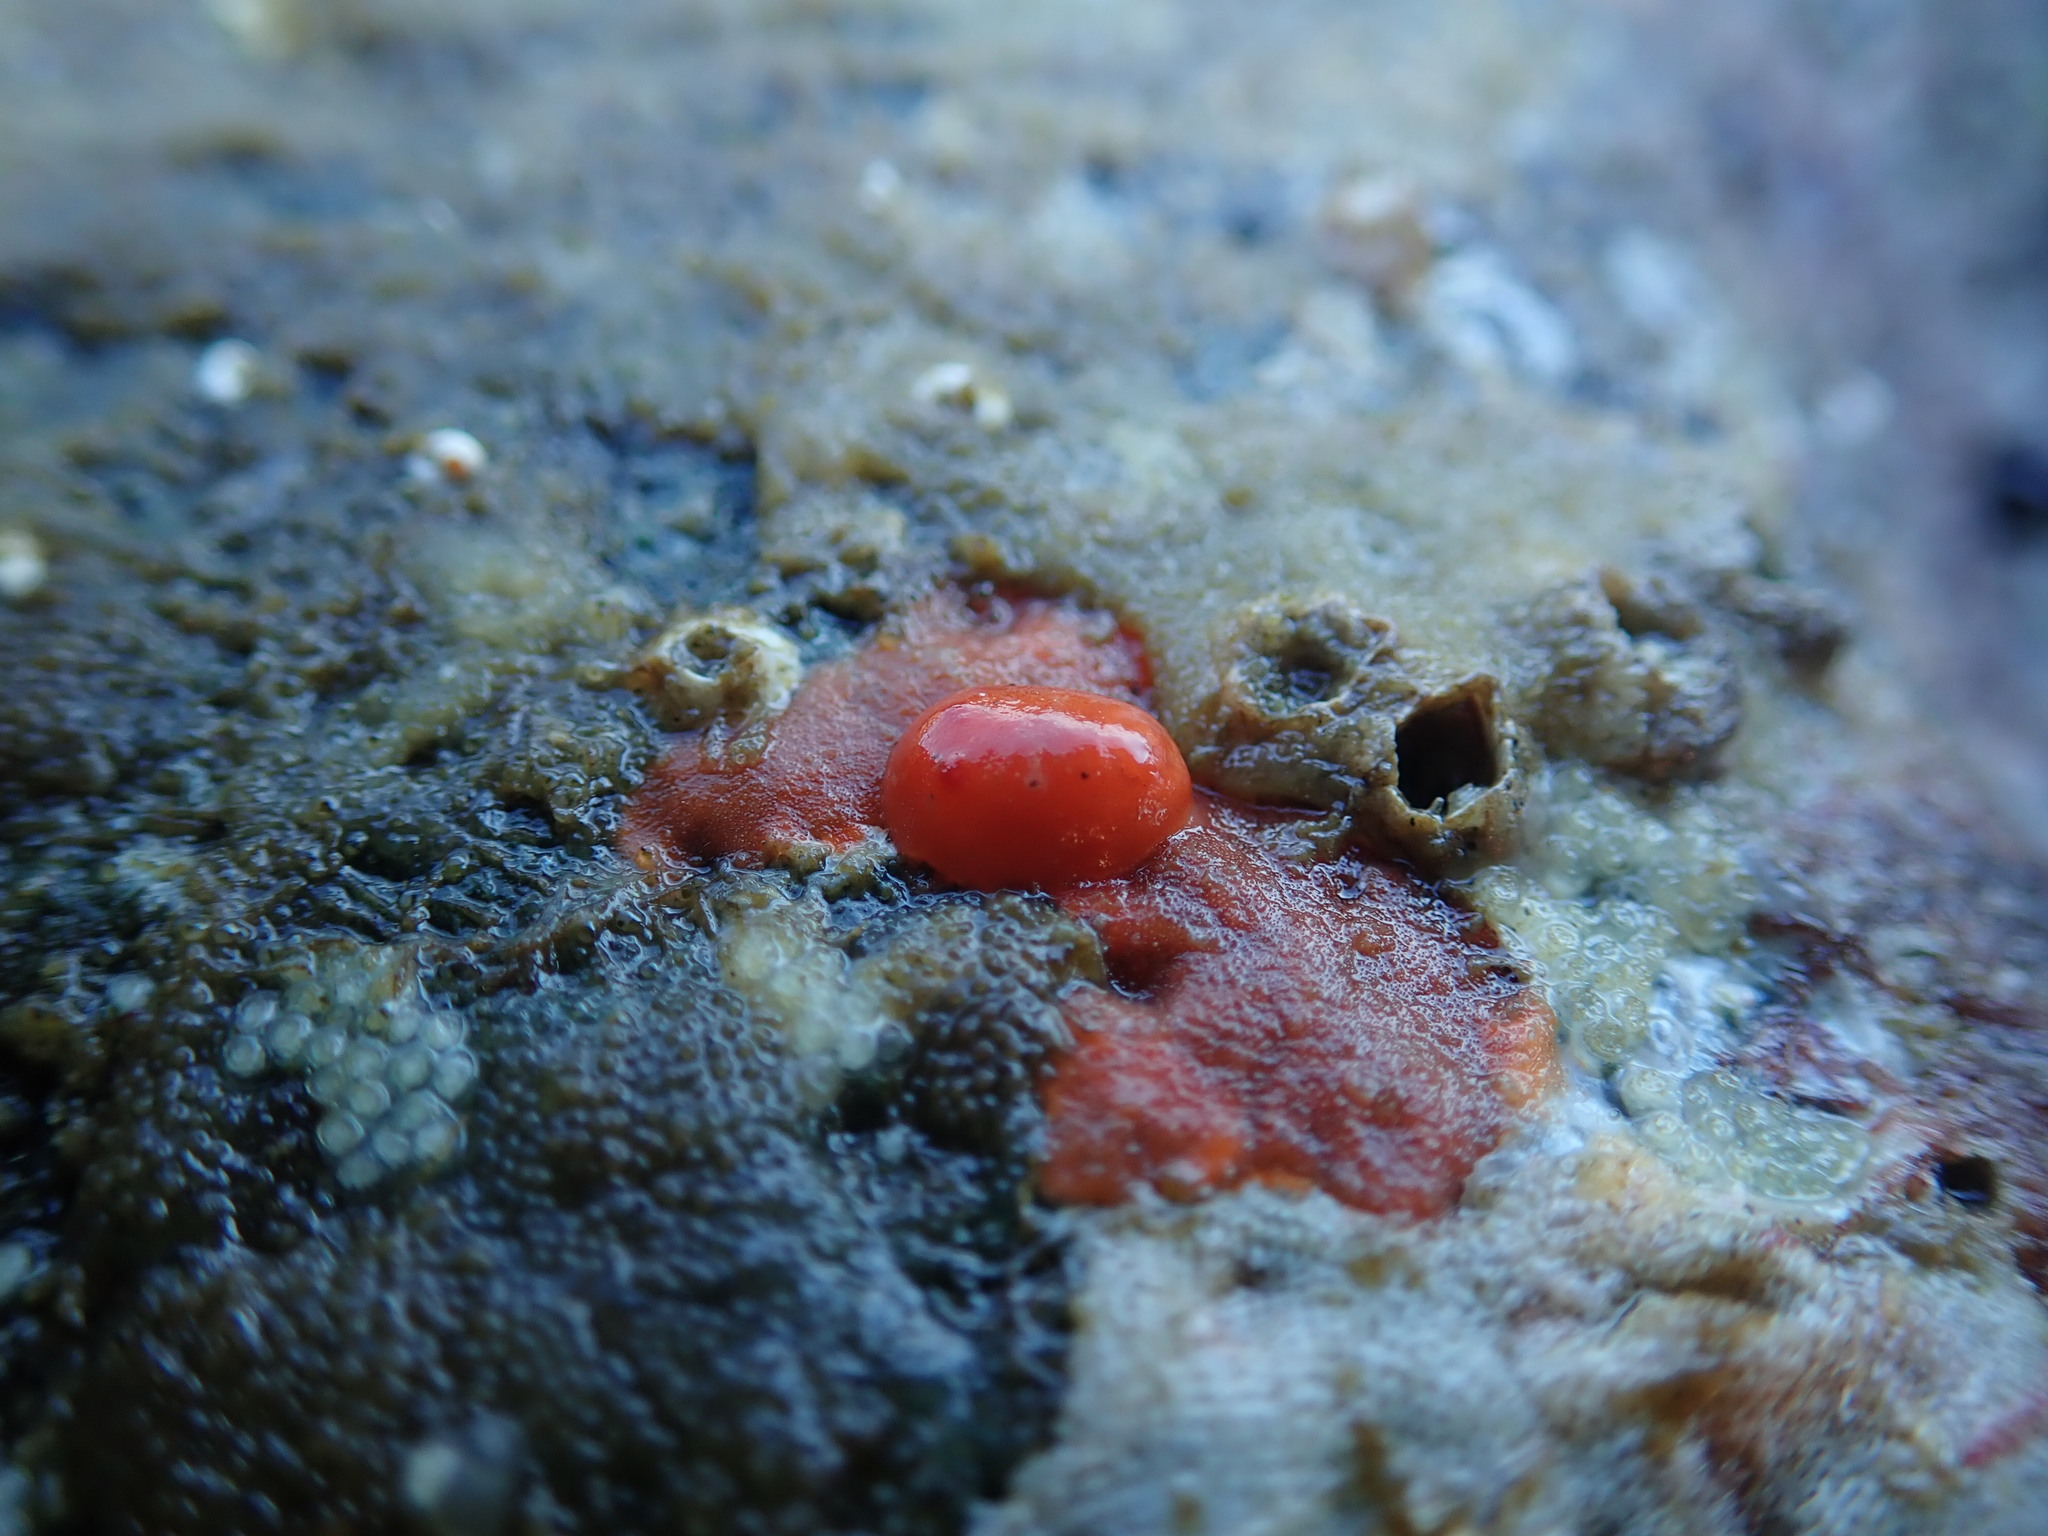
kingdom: Animalia
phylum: Mollusca
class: Gastropoda
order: Nudibranchia
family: Discodorididae
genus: Rostanga
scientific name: Rostanga pulchra
